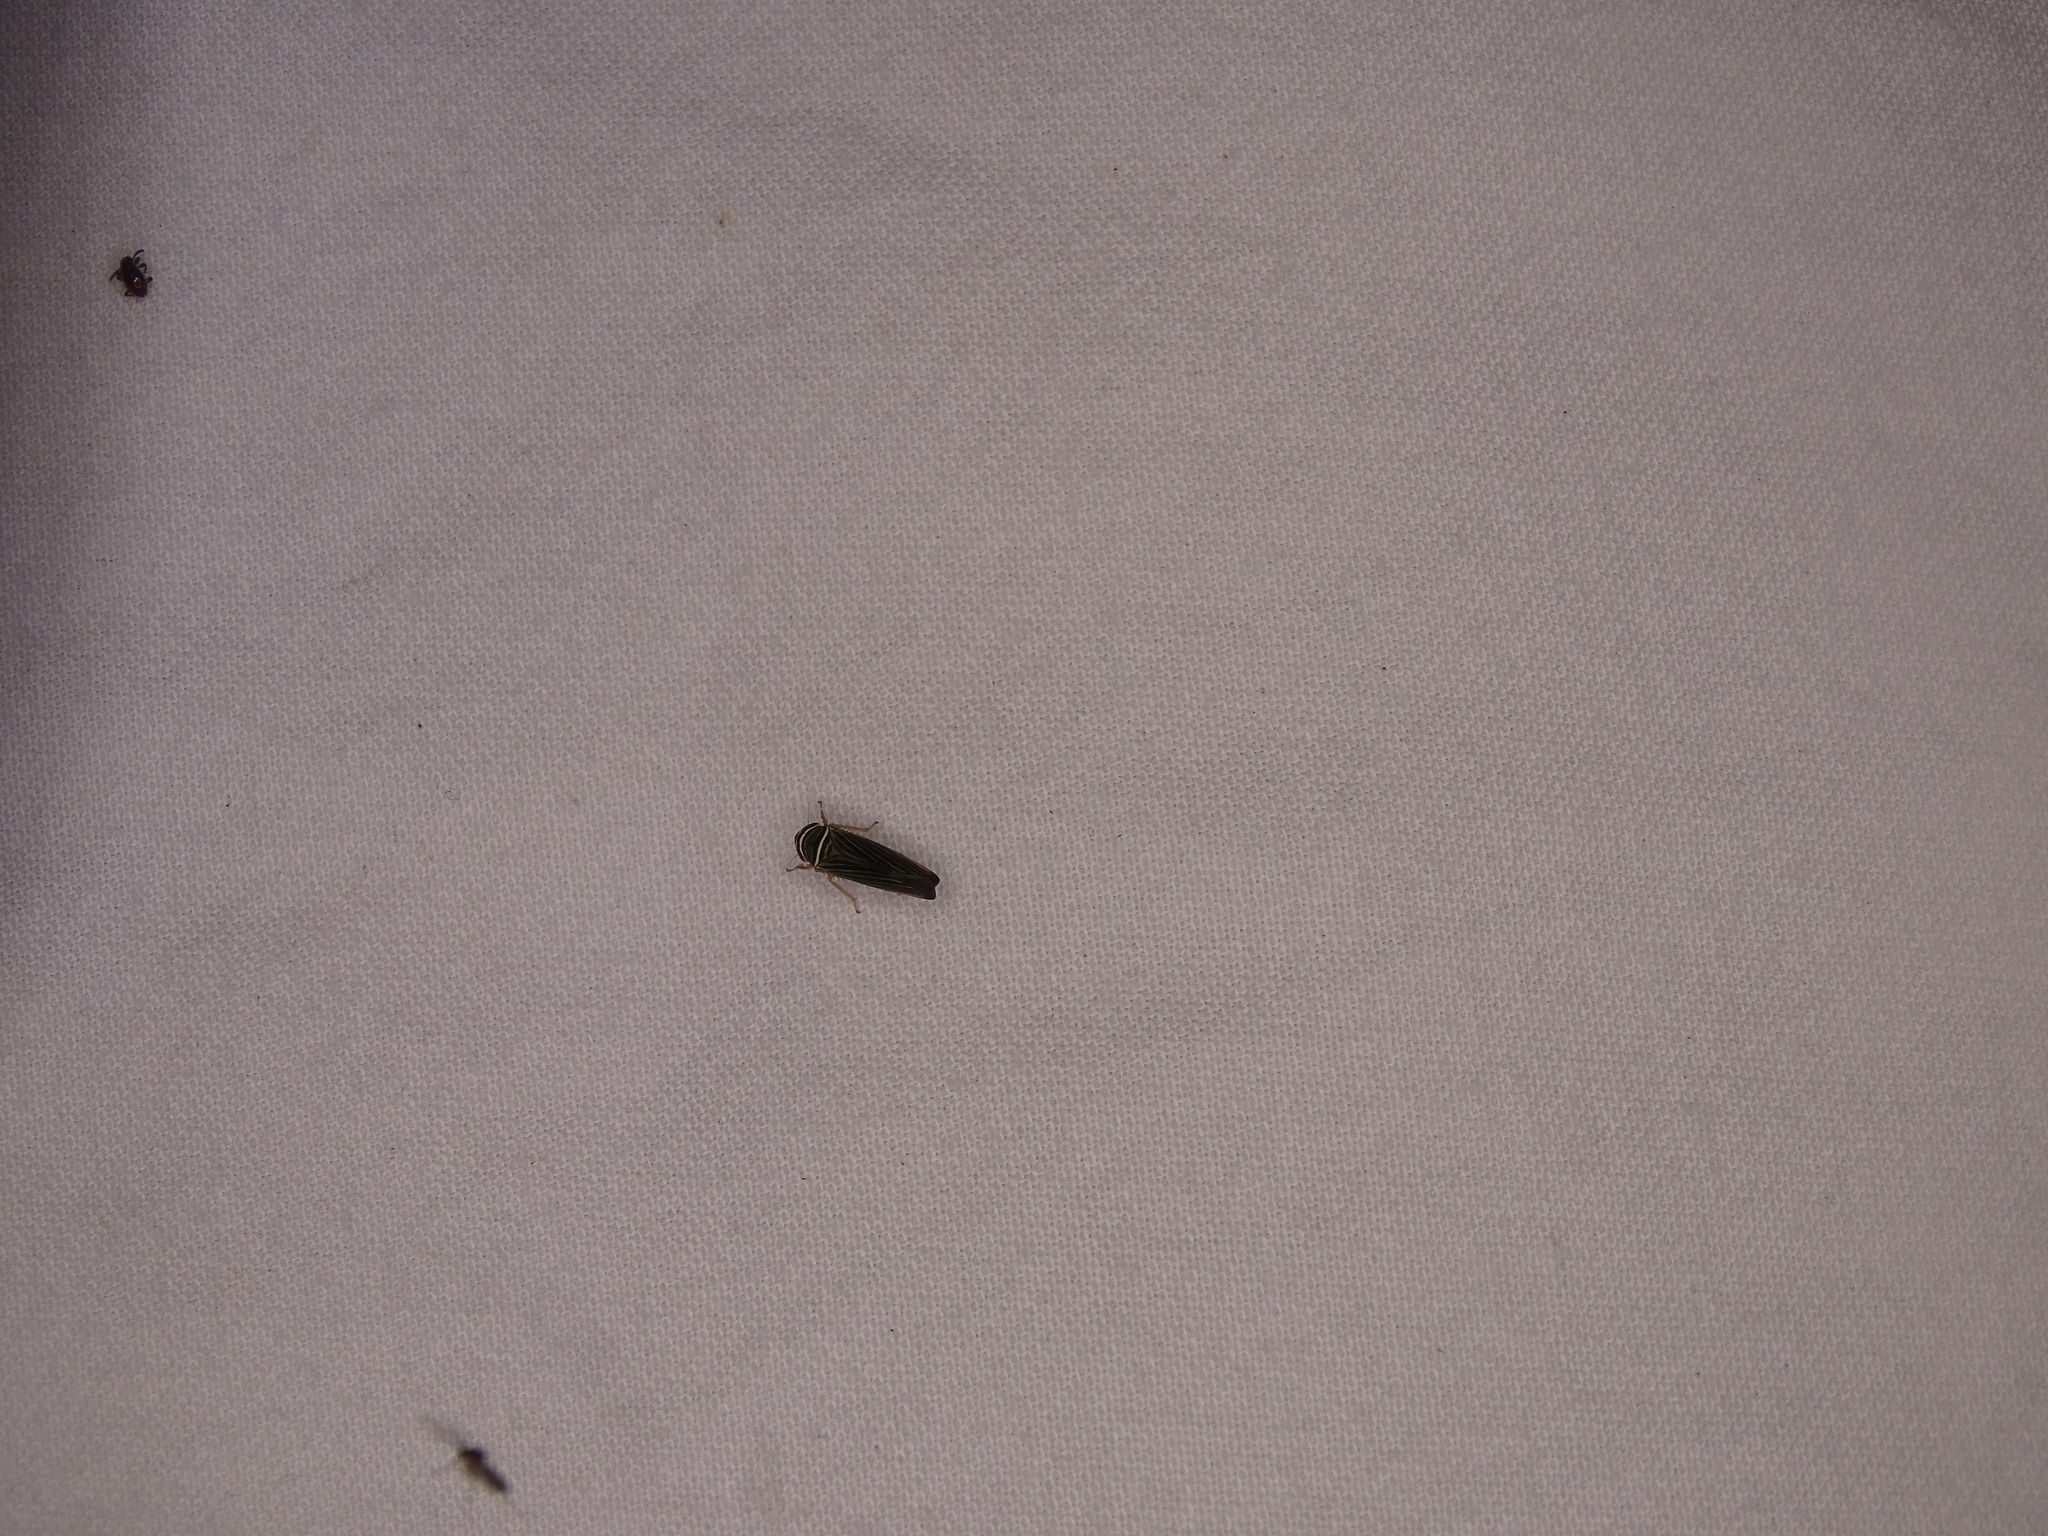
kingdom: Animalia
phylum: Arthropoda
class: Insecta
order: Hemiptera
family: Cicadellidae
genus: Tylozygus
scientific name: Tylozygus bifidus
